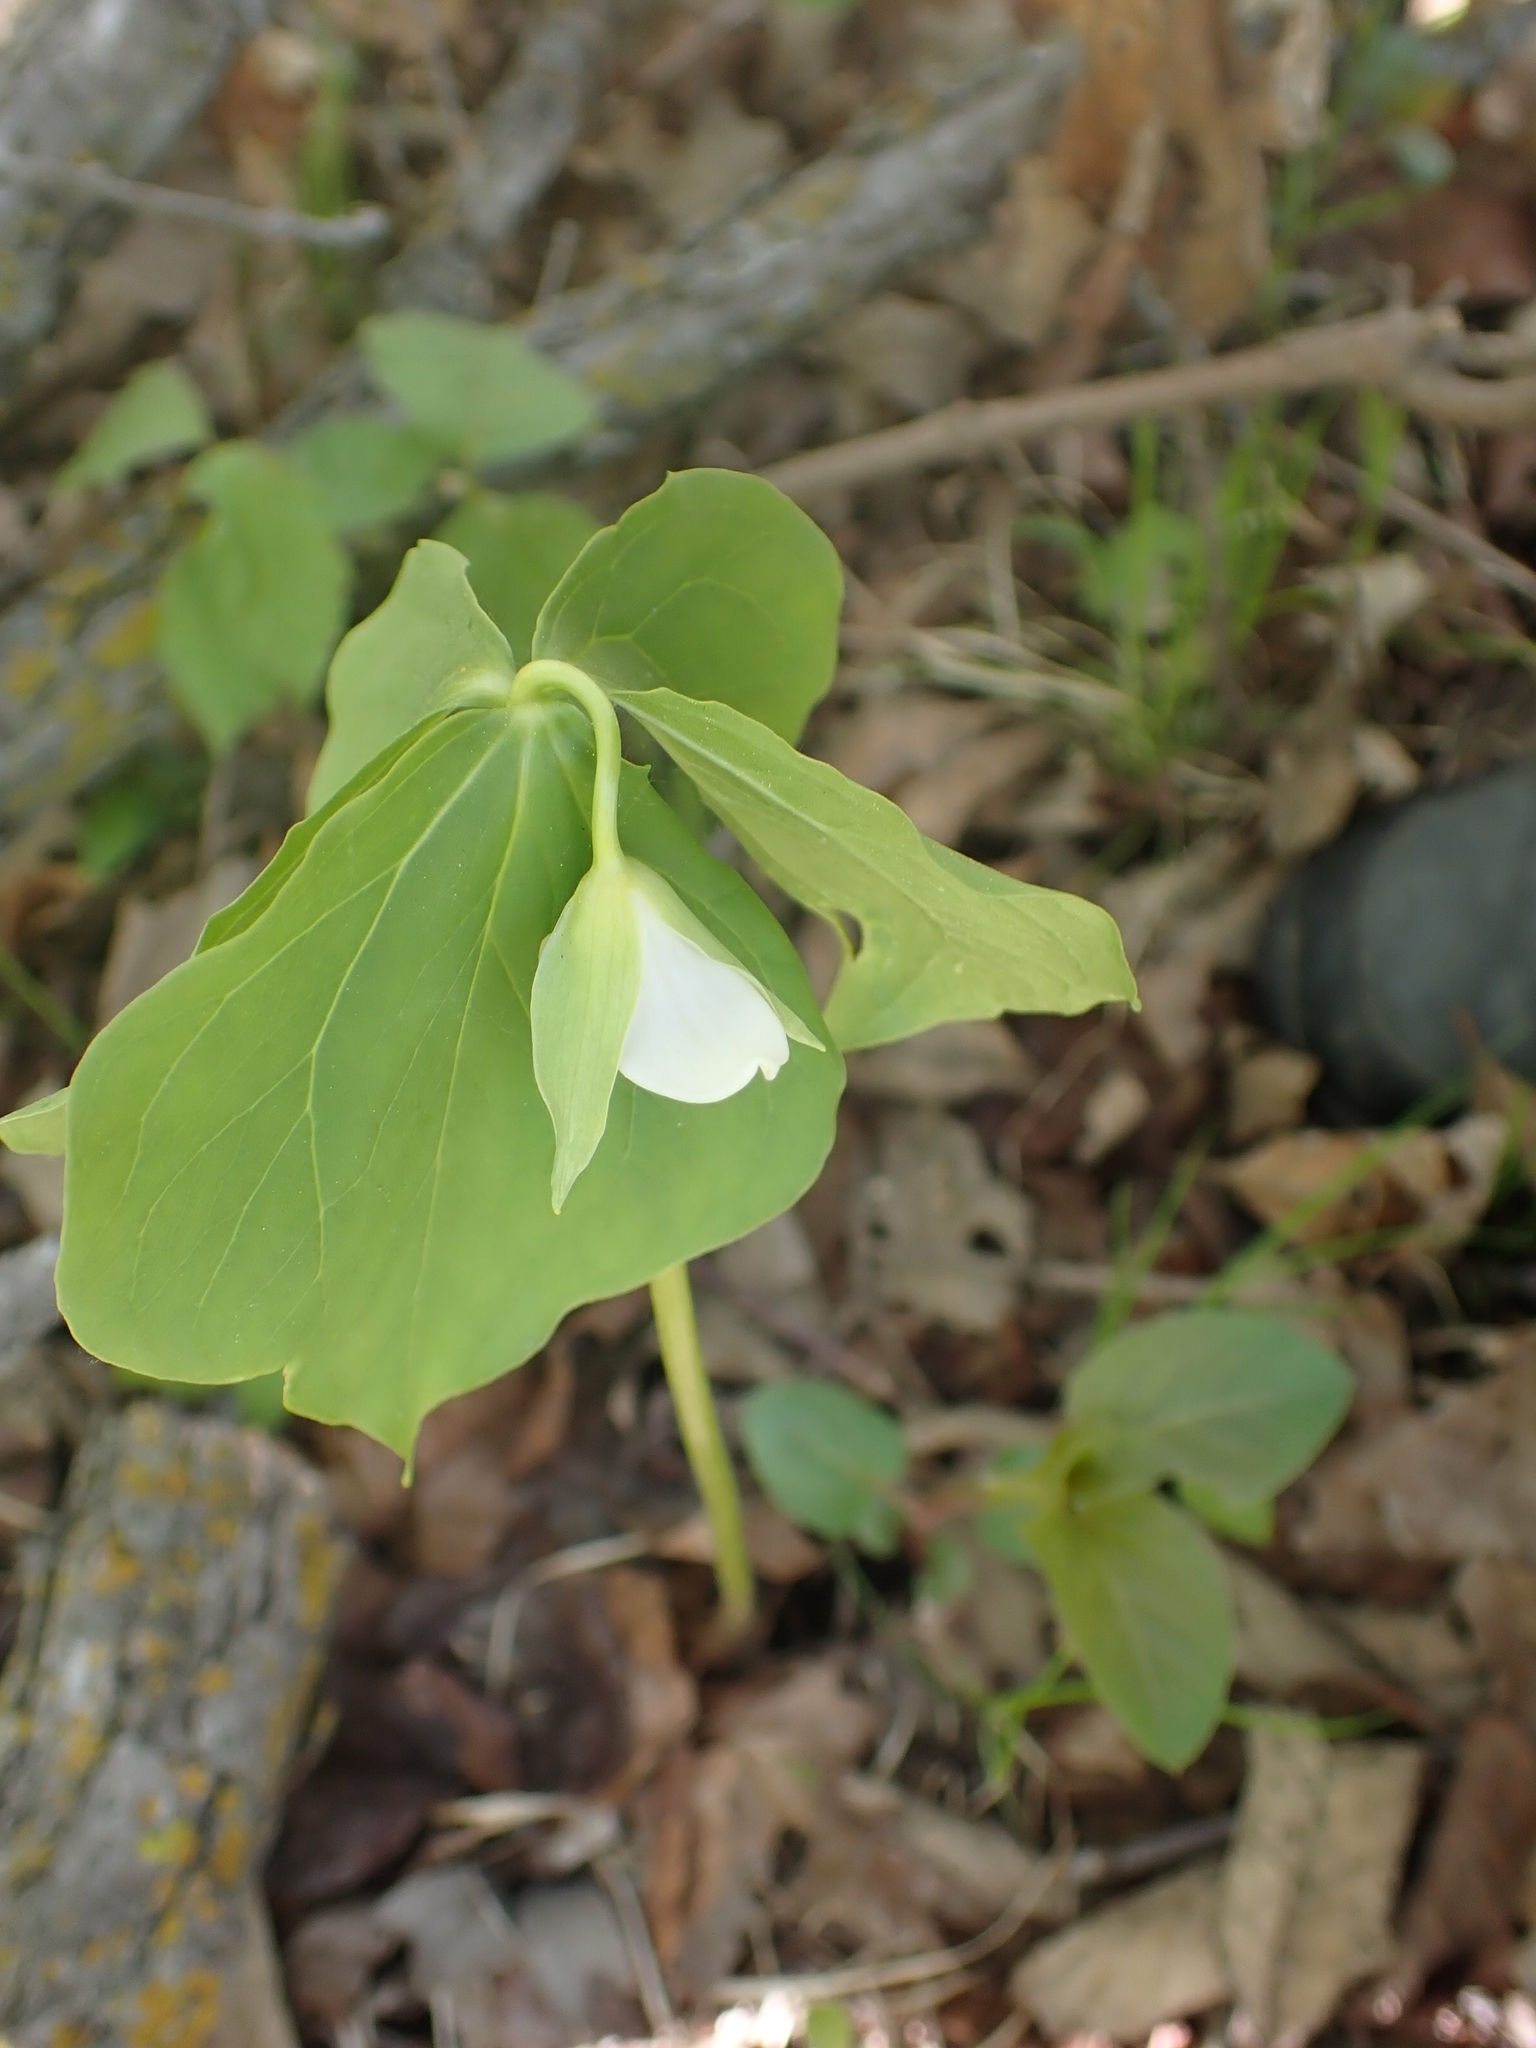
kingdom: Plantae
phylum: Tracheophyta
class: Liliopsida
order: Liliales
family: Melanthiaceae
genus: Trillium
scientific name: Trillium cernuum
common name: Nodding trillium
